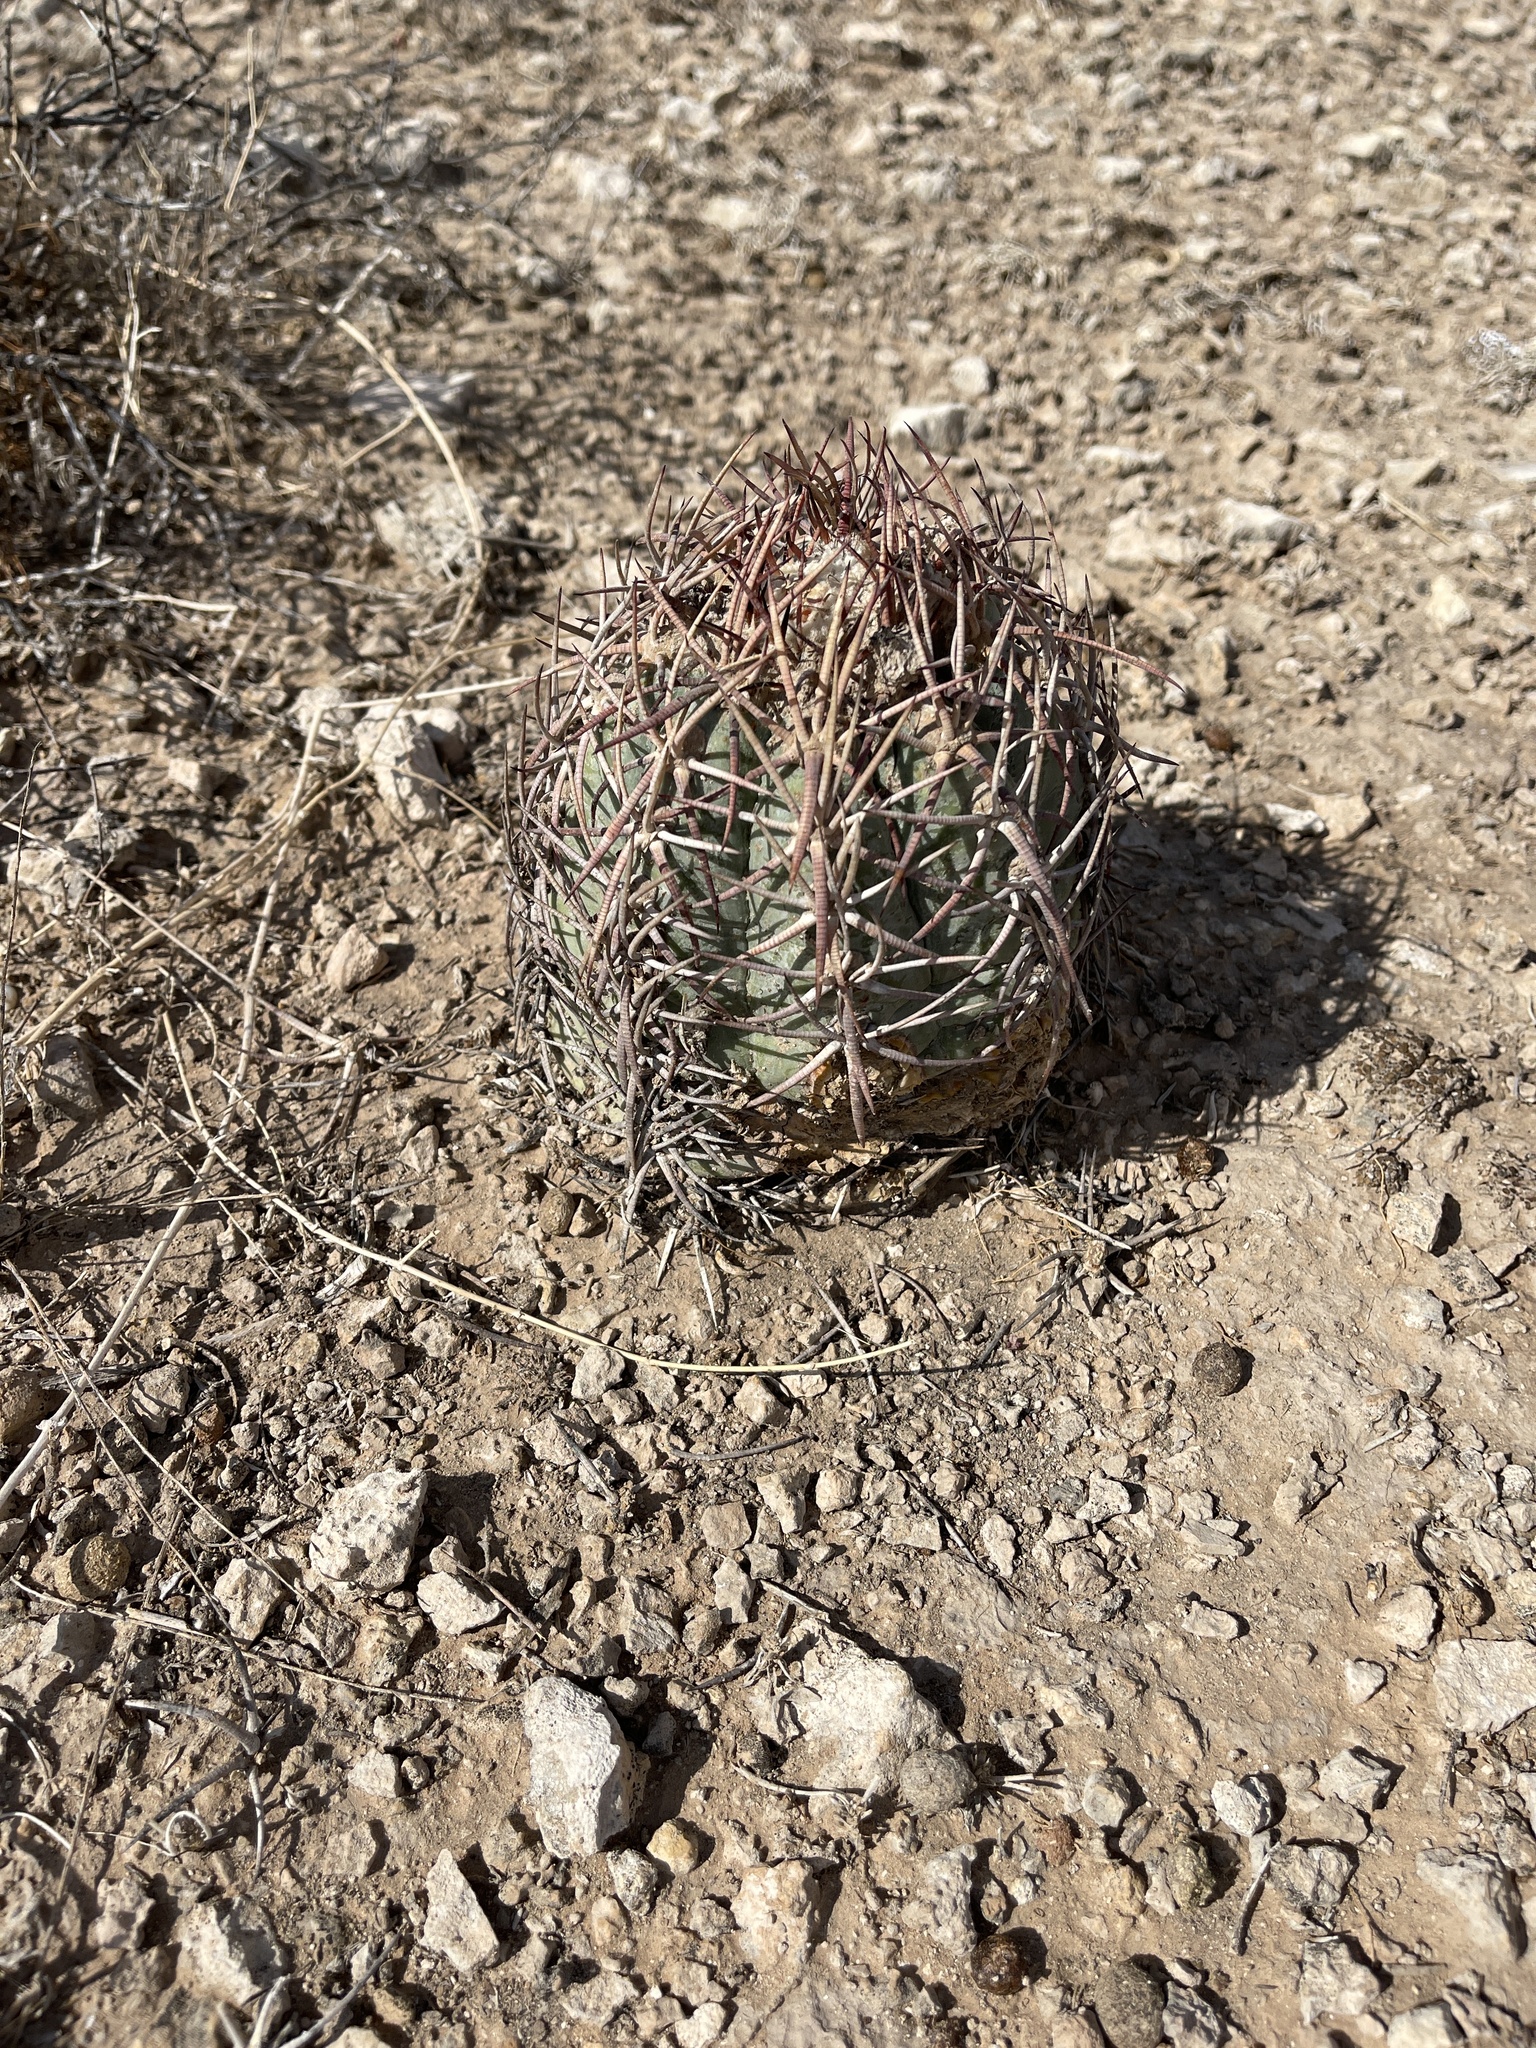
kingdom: Plantae
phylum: Tracheophyta
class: Magnoliopsida
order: Caryophyllales
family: Cactaceae
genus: Echinocactus
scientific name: Echinocactus horizonthalonius
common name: Devilshead
